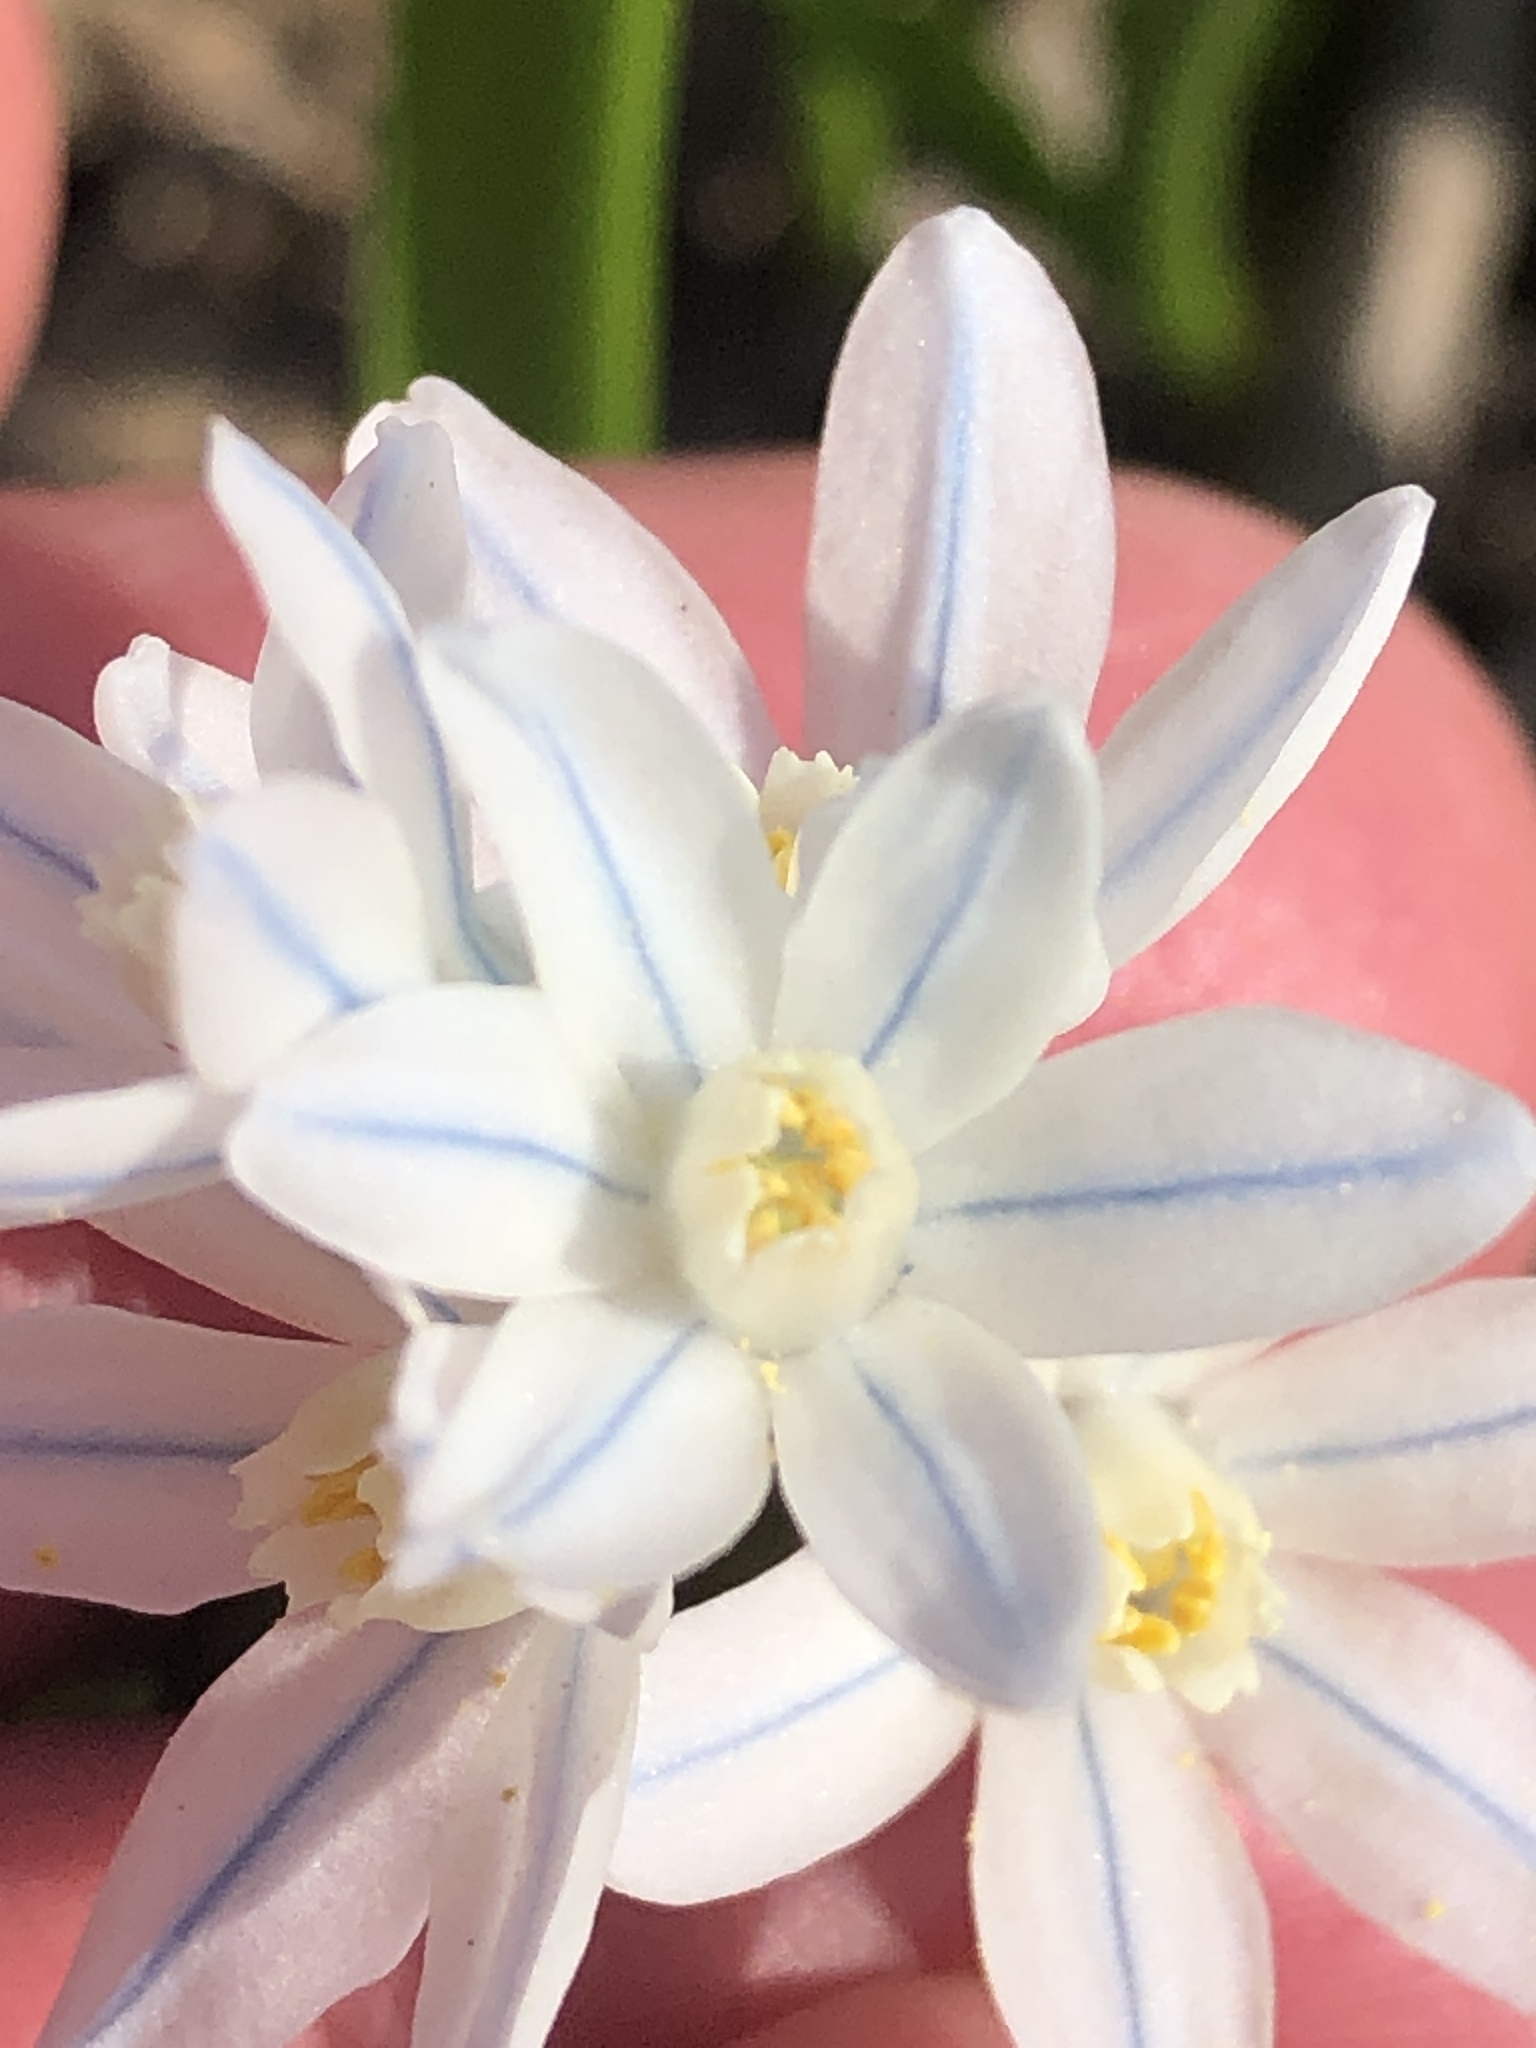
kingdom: Plantae
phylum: Tracheophyta
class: Liliopsida
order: Asparagales
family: Asparagaceae
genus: Puschkinia
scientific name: Puschkinia scilloides
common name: Striped squill
